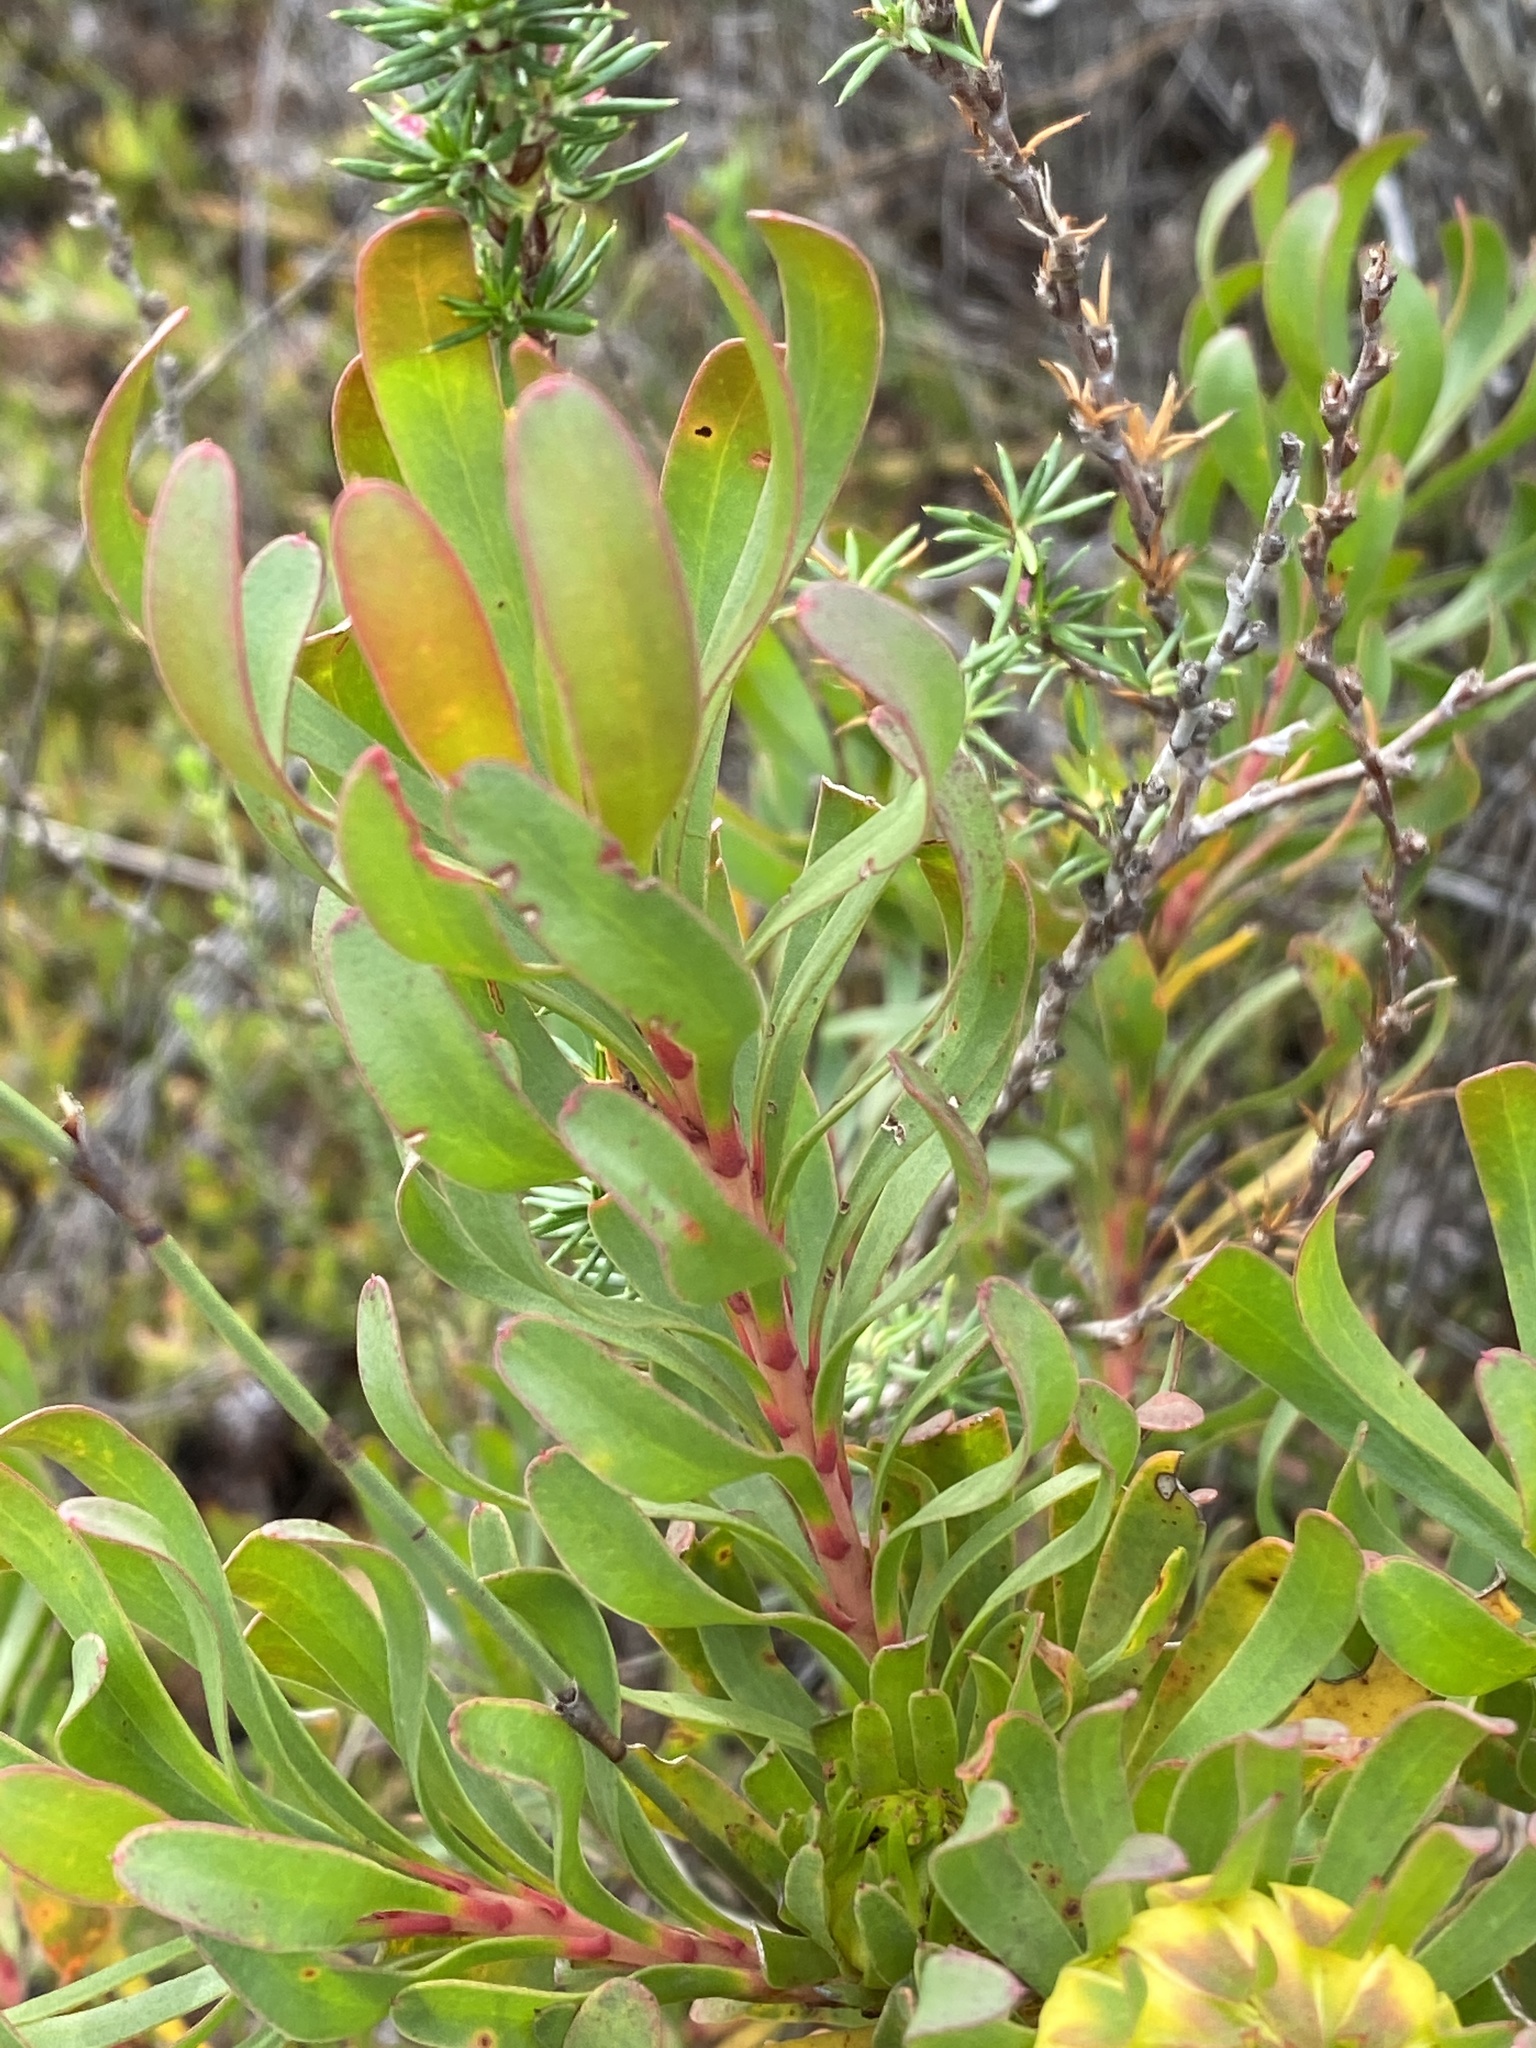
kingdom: Plantae
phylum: Tracheophyta
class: Magnoliopsida
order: Proteales
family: Proteaceae
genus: Aulax
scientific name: Aulax umbellata
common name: Broad-leaf featherbush
